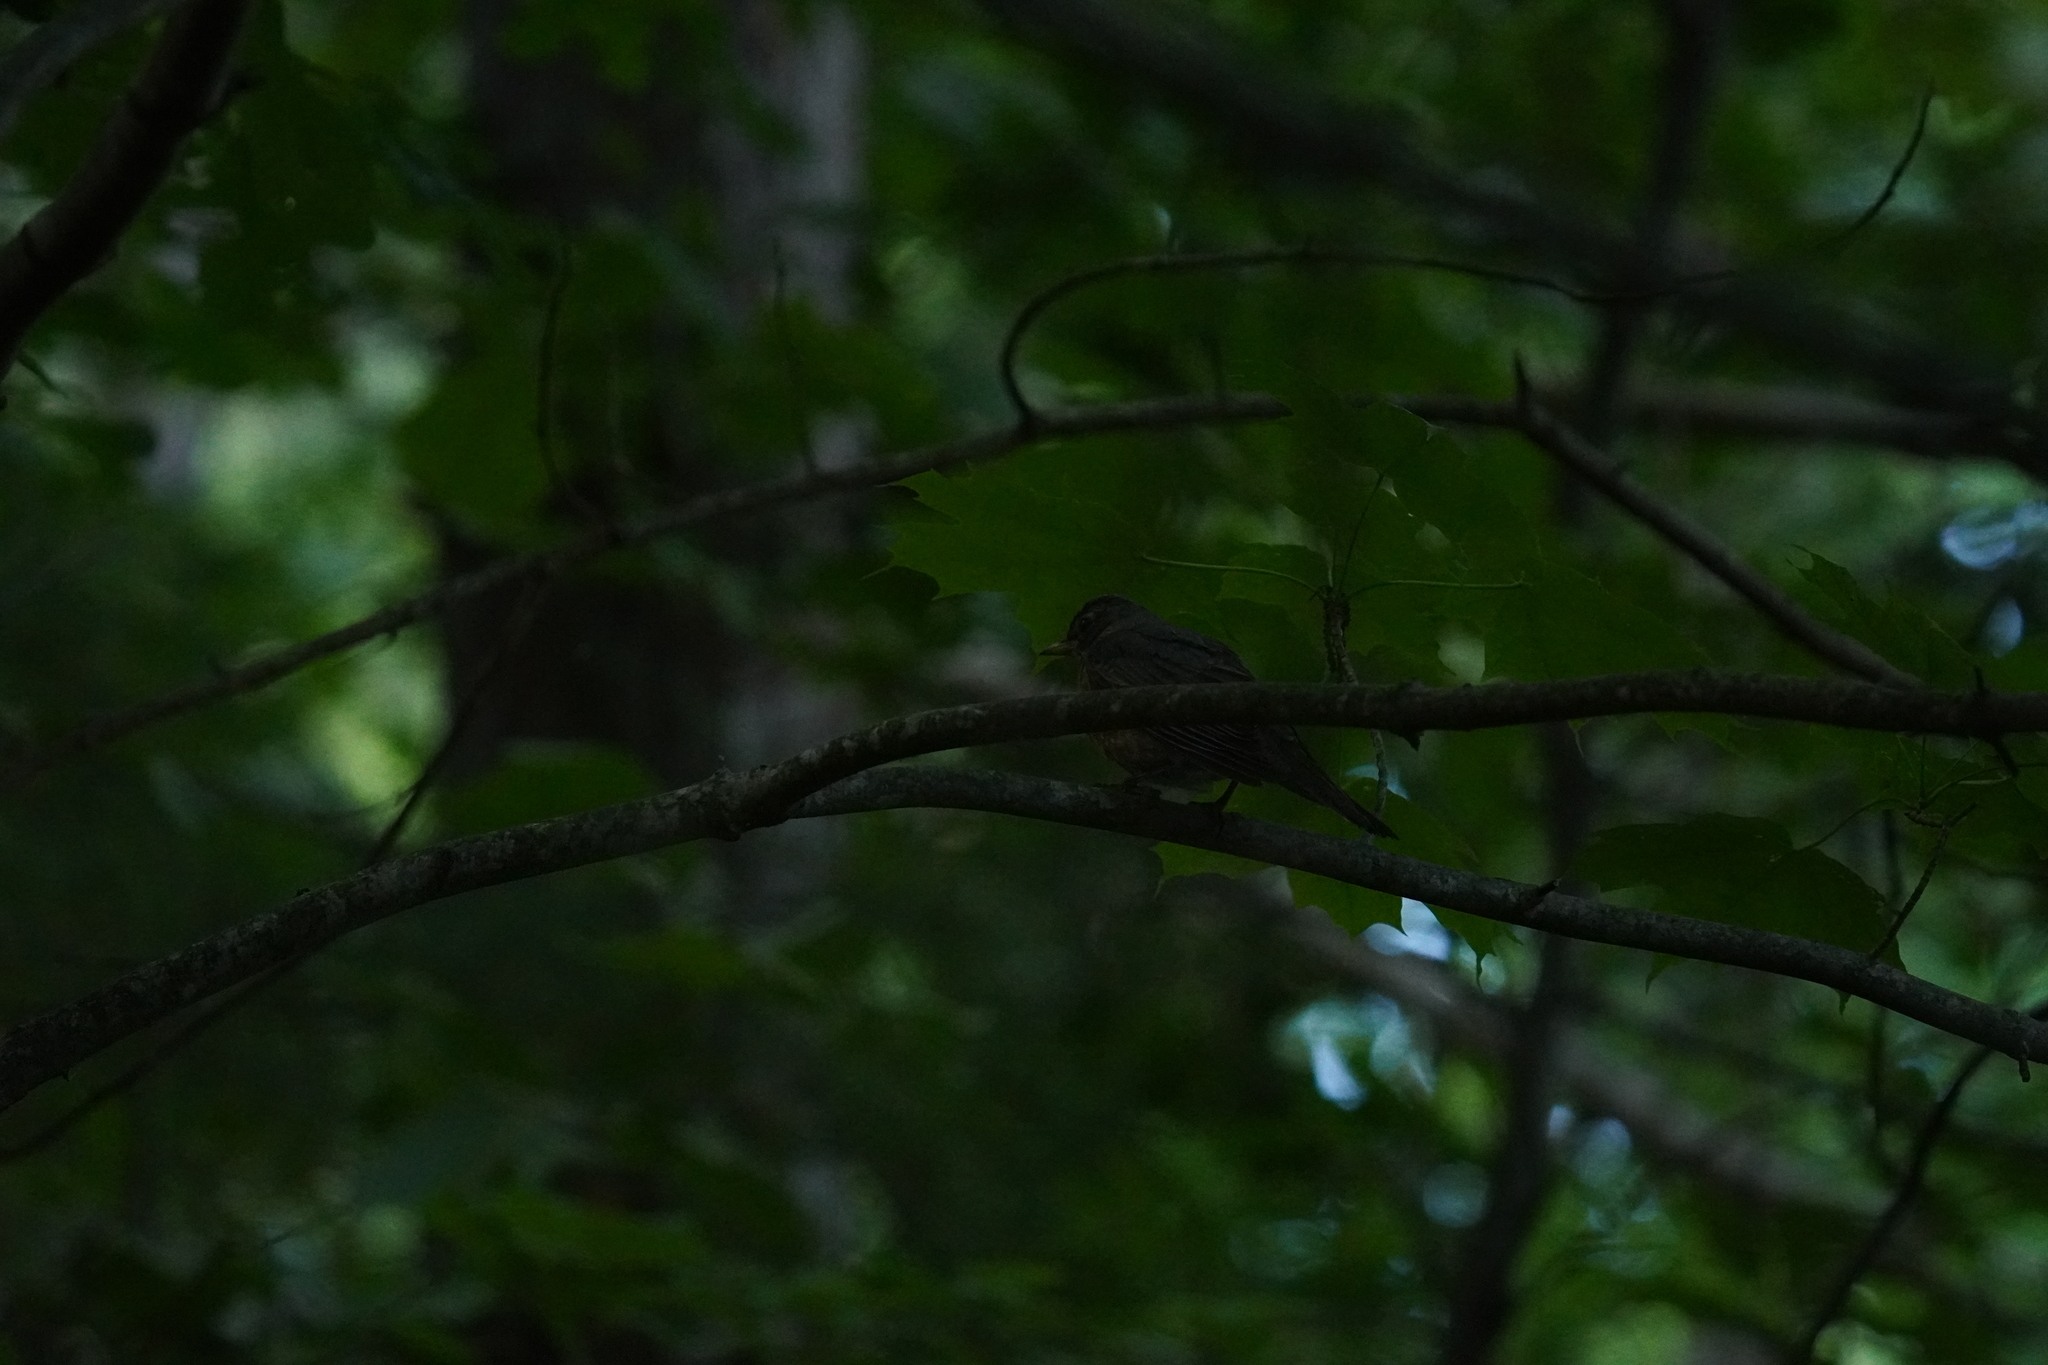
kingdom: Animalia
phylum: Chordata
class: Aves
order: Passeriformes
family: Turdidae
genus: Turdus
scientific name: Turdus migratorius
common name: American robin
